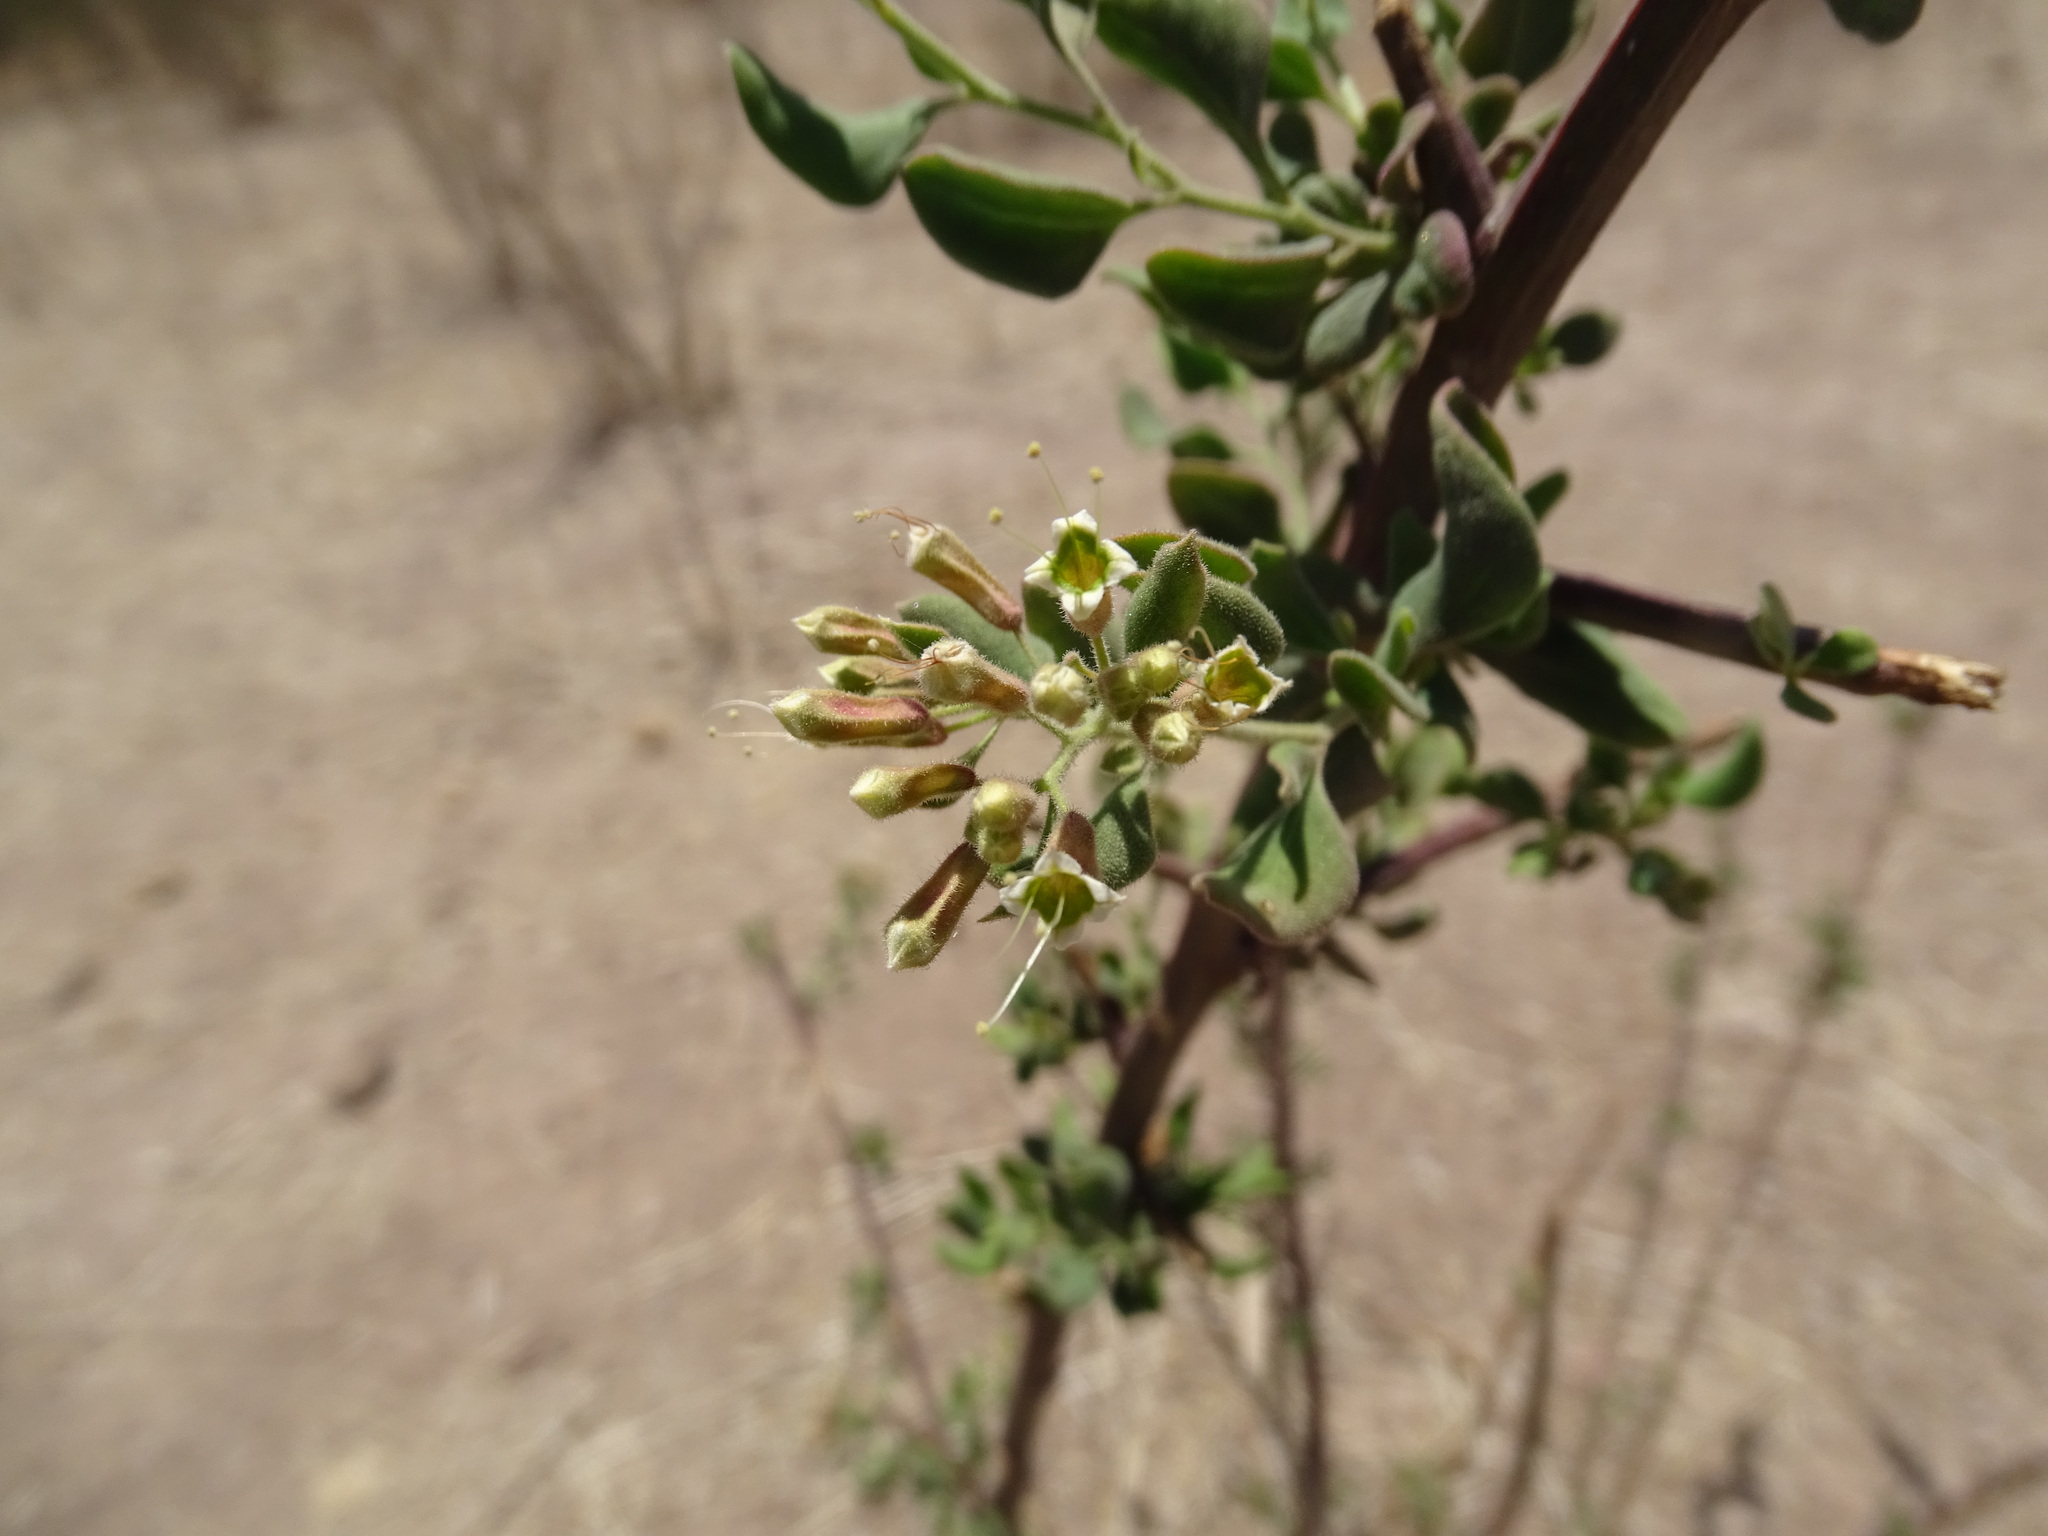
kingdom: Plantae
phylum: Tracheophyta
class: Magnoliopsida
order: Caryophyllales
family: Nyctaginaceae
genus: Salpianthus
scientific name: Salpianthus macrodontus
